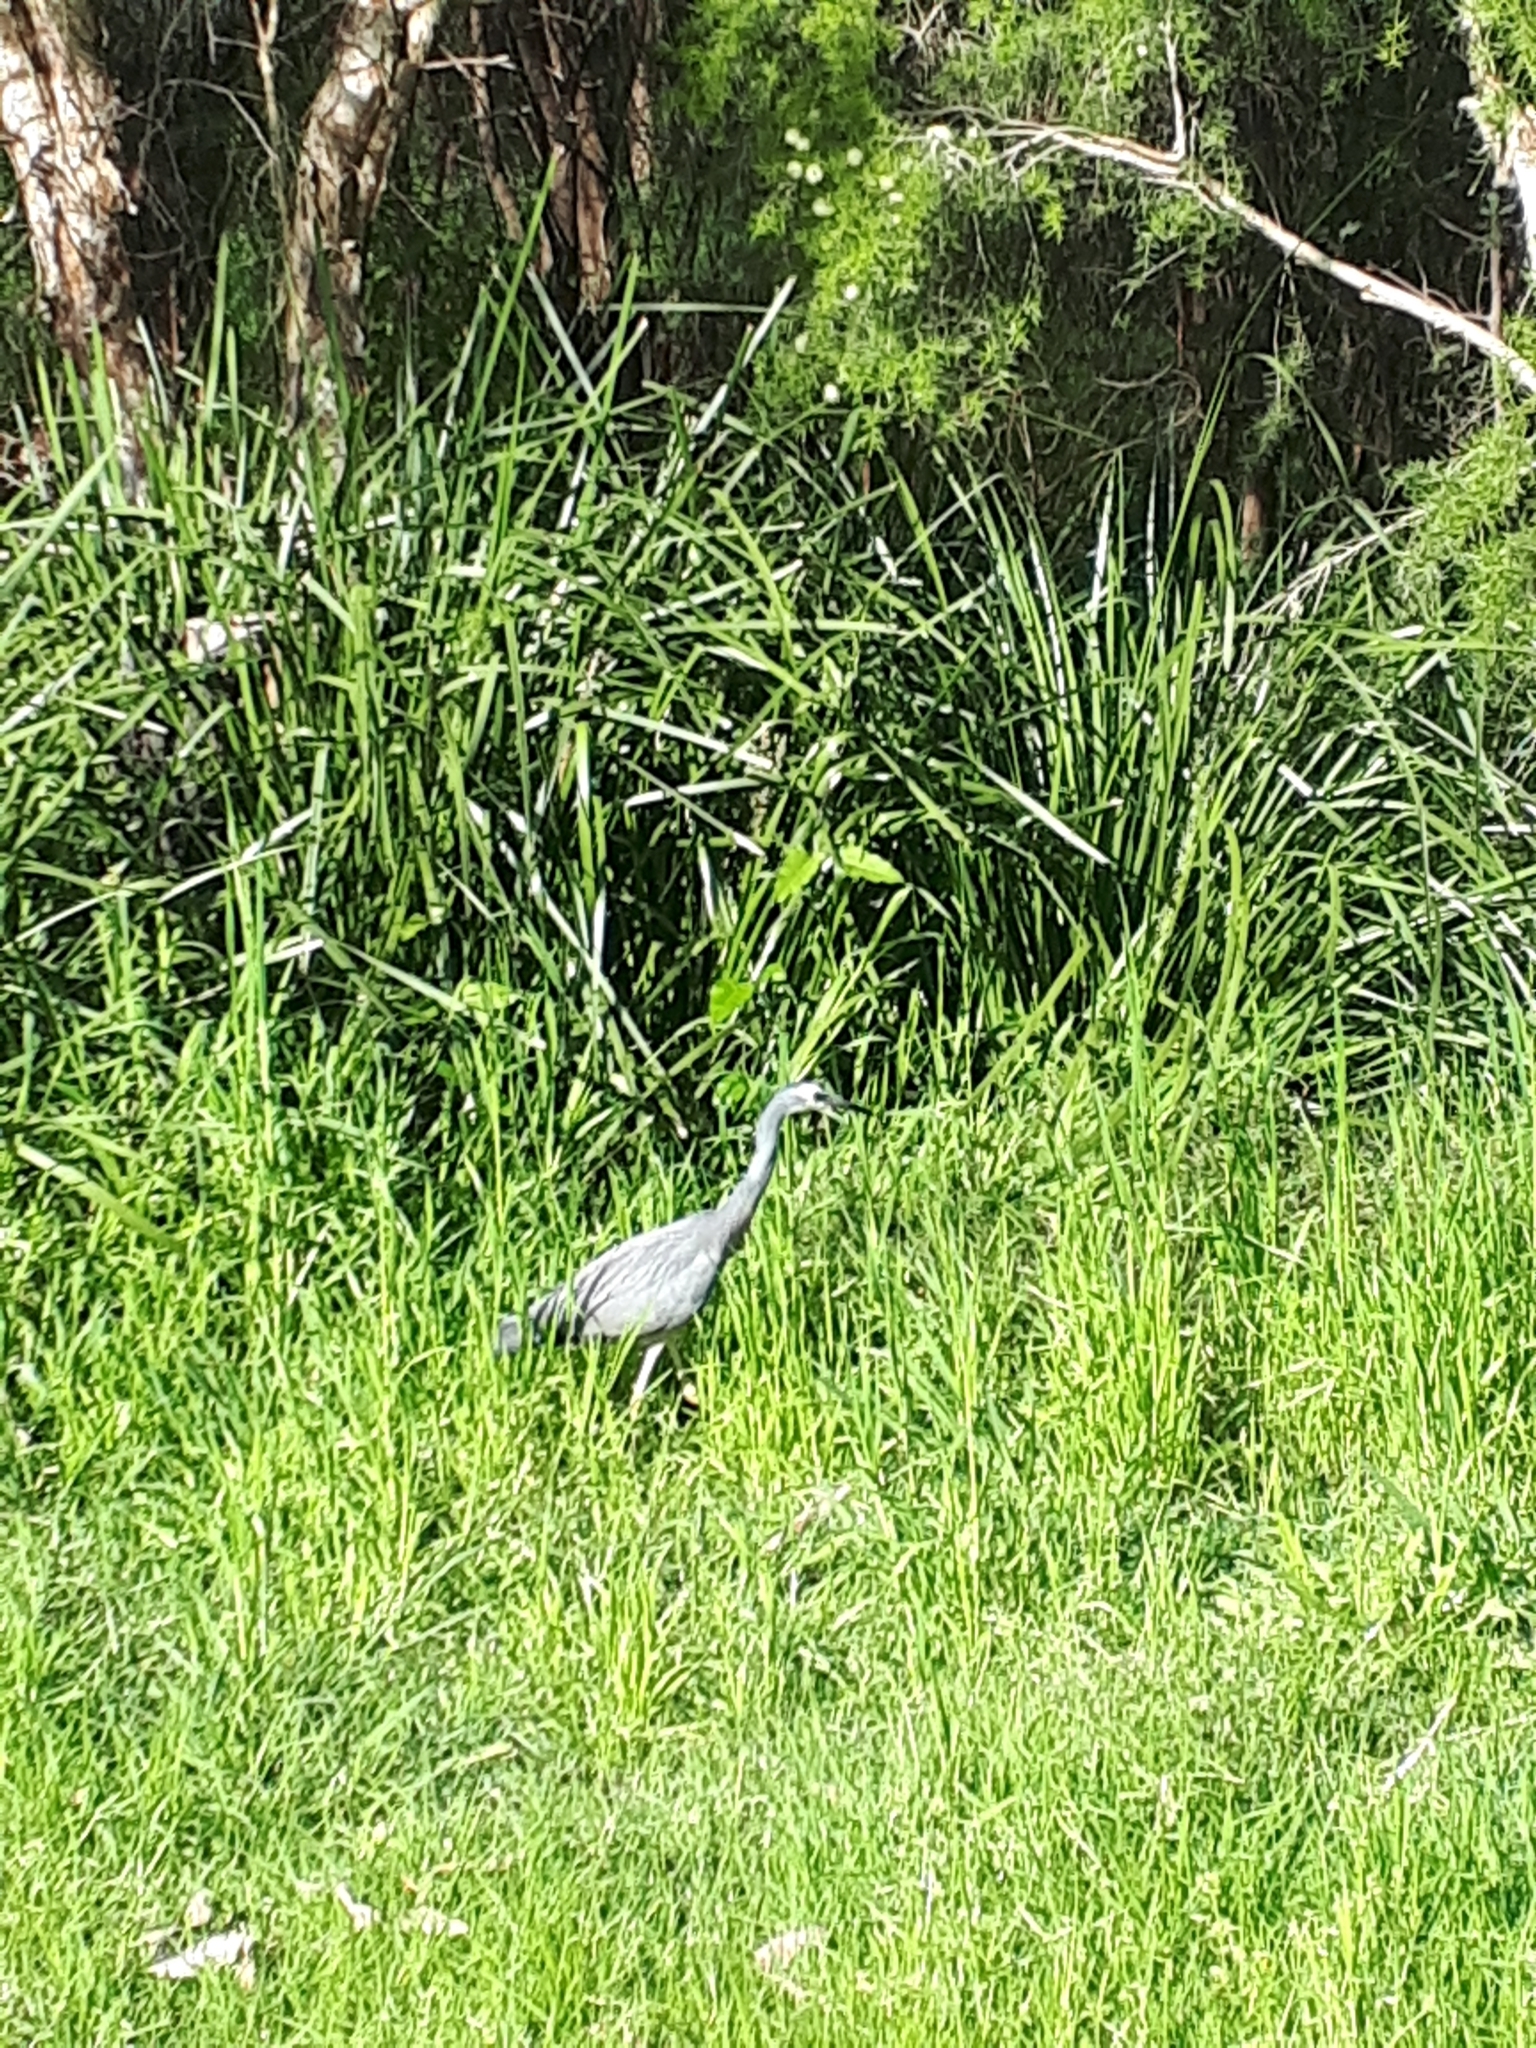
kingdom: Animalia
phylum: Chordata
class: Aves
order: Pelecaniformes
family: Ardeidae
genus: Egretta
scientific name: Egretta novaehollandiae
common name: White-faced heron
